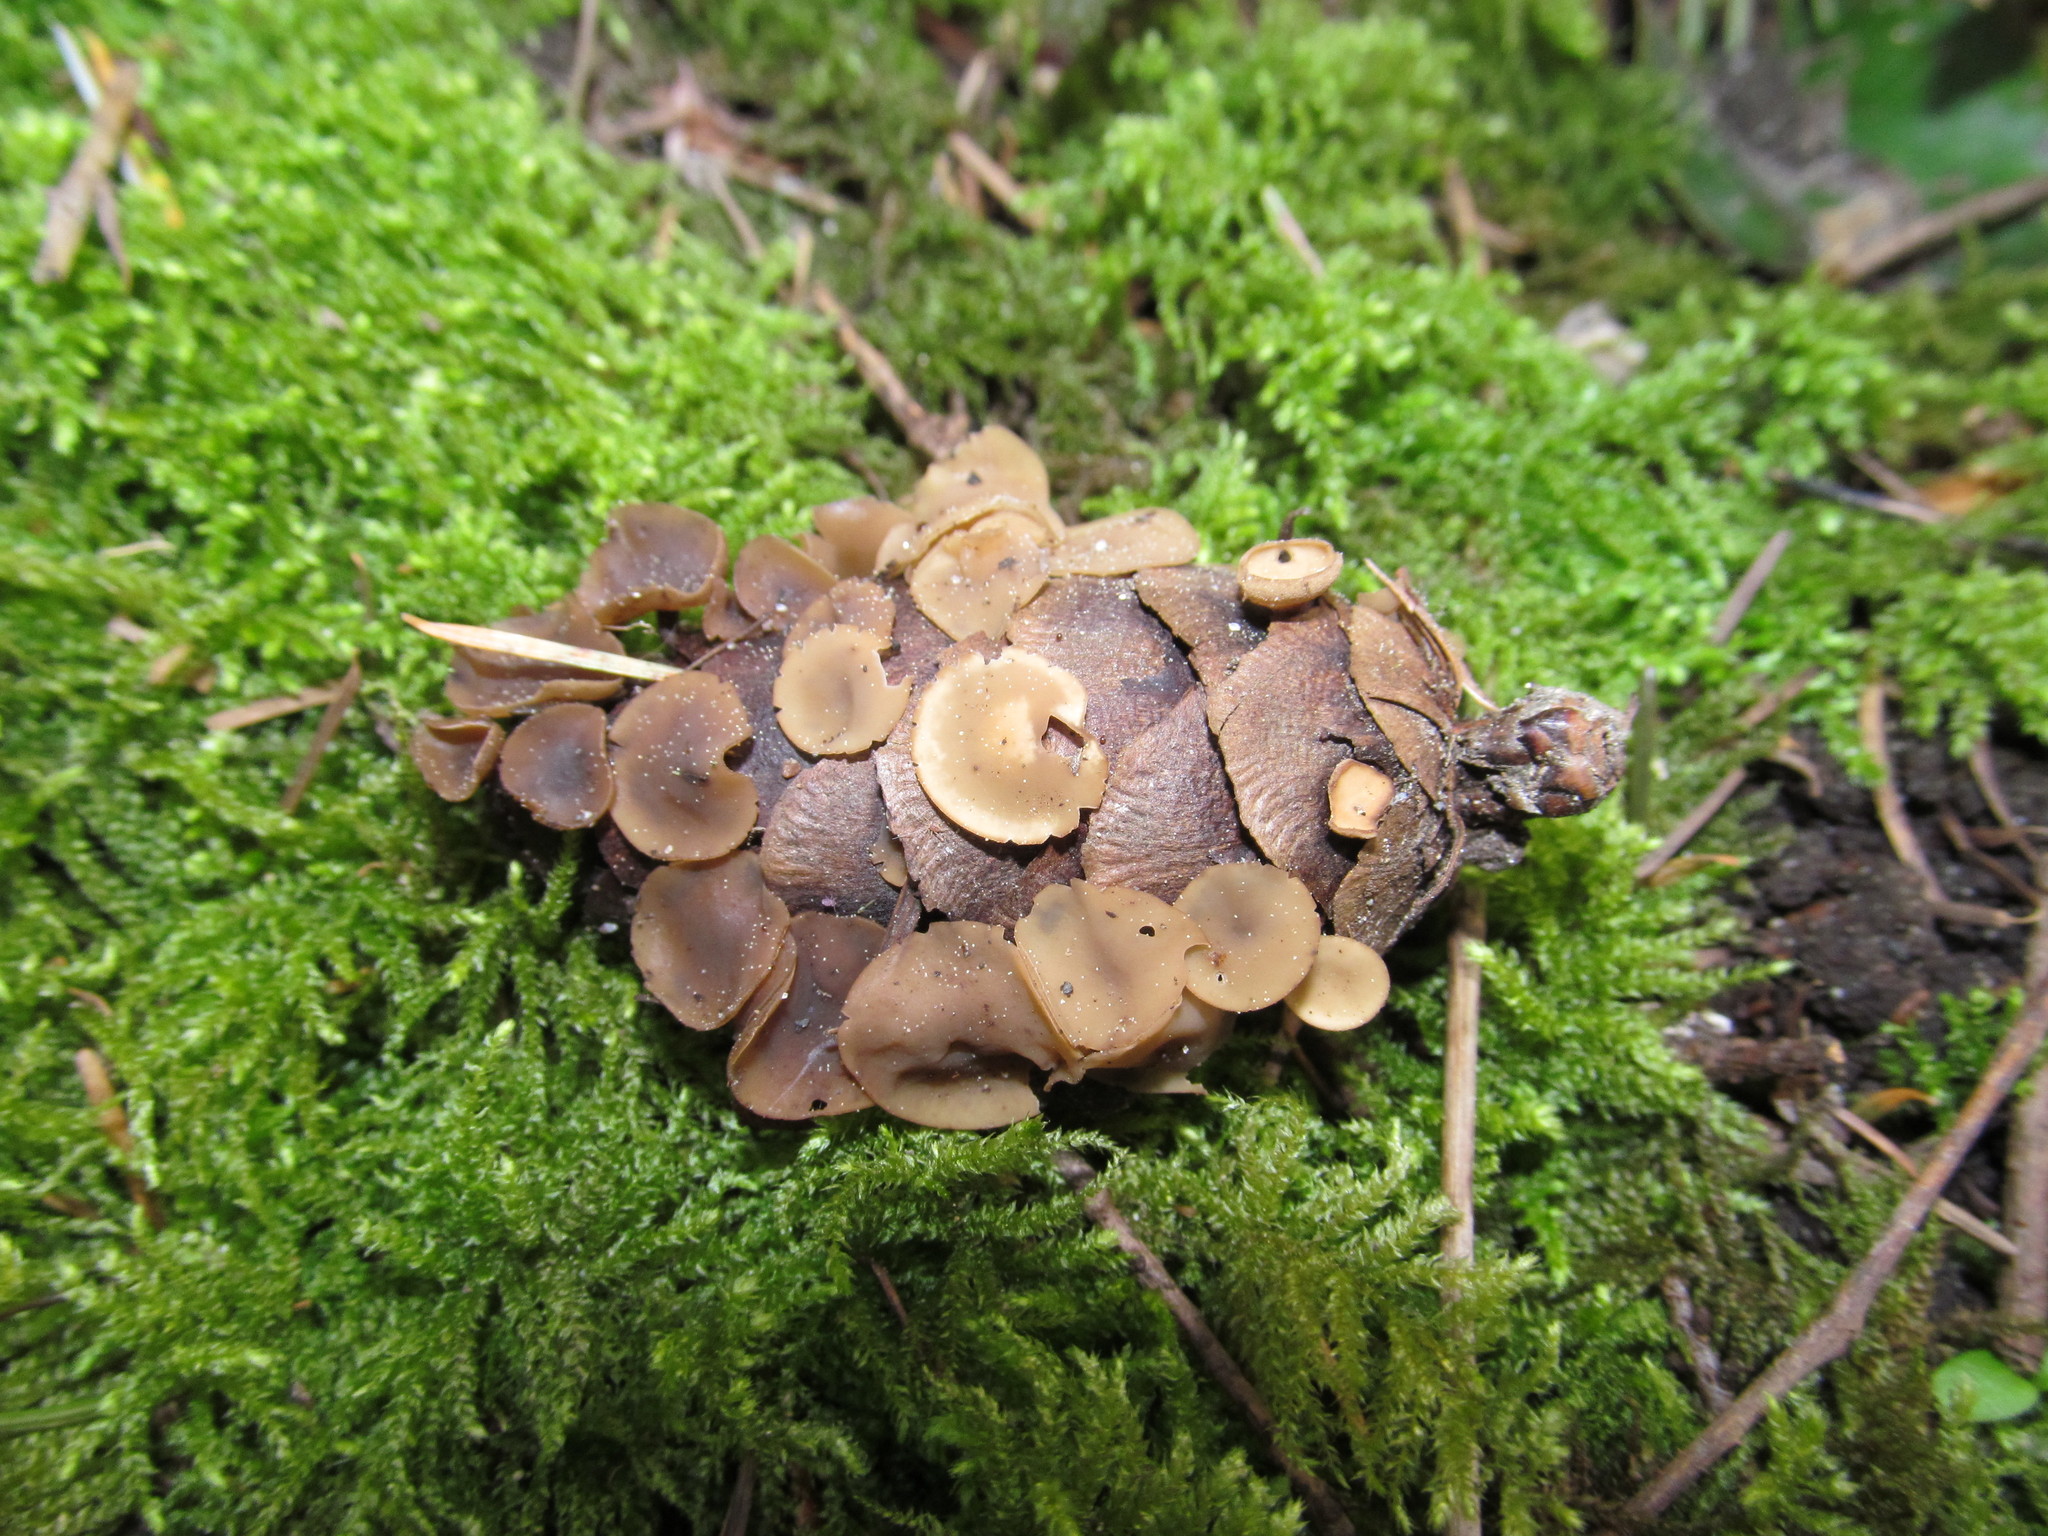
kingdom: Fungi
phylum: Ascomycota
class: Leotiomycetes
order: Helotiales
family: Sclerotiniaceae
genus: Ciboria
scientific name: Ciboria rufofusca
